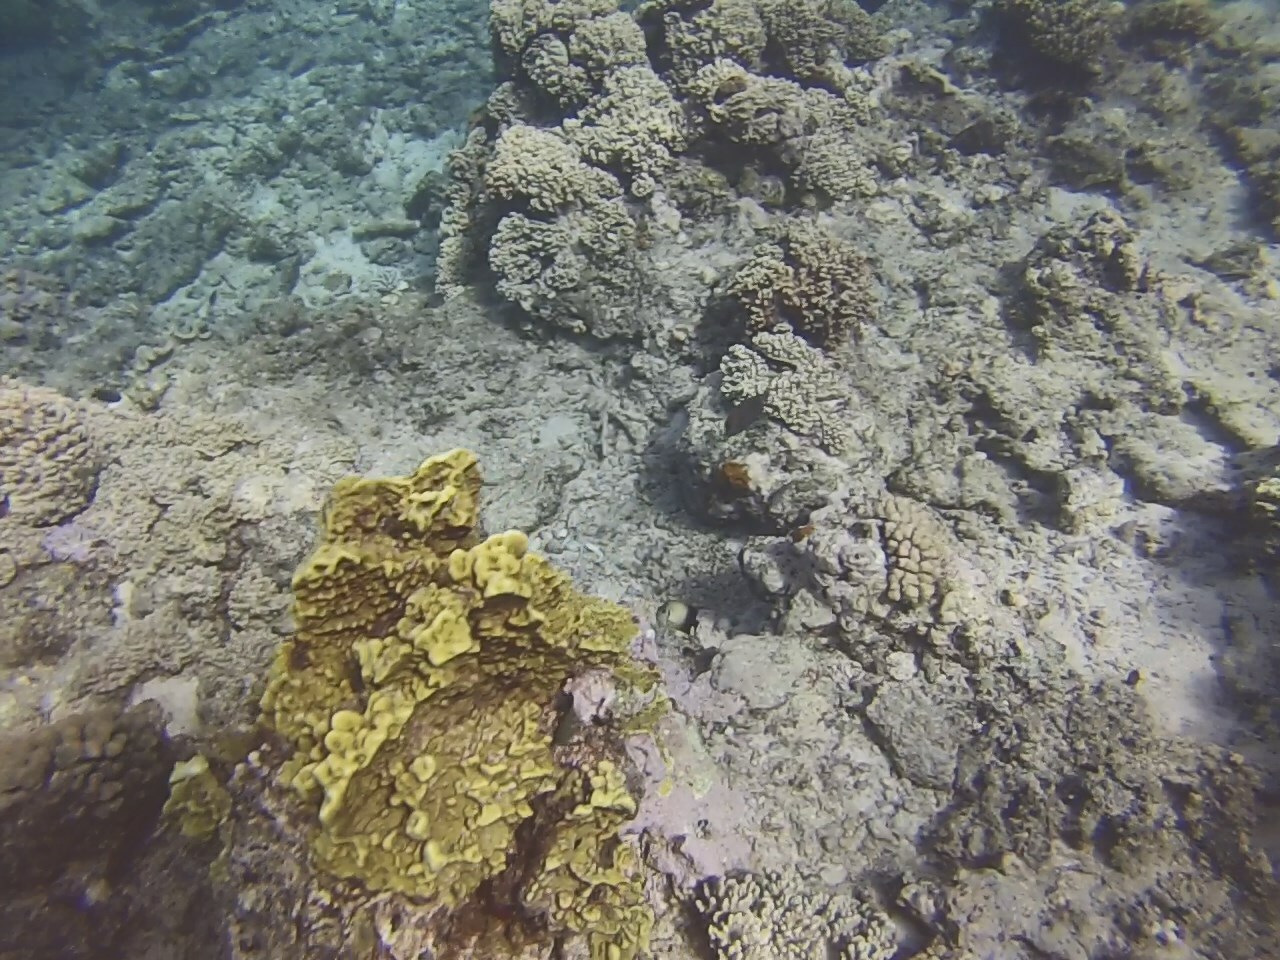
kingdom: Animalia
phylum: Chordata
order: Perciformes
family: Pomacanthidae
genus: Centropyge
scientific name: Centropyge vrolikii
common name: Pearlscale angelfish
